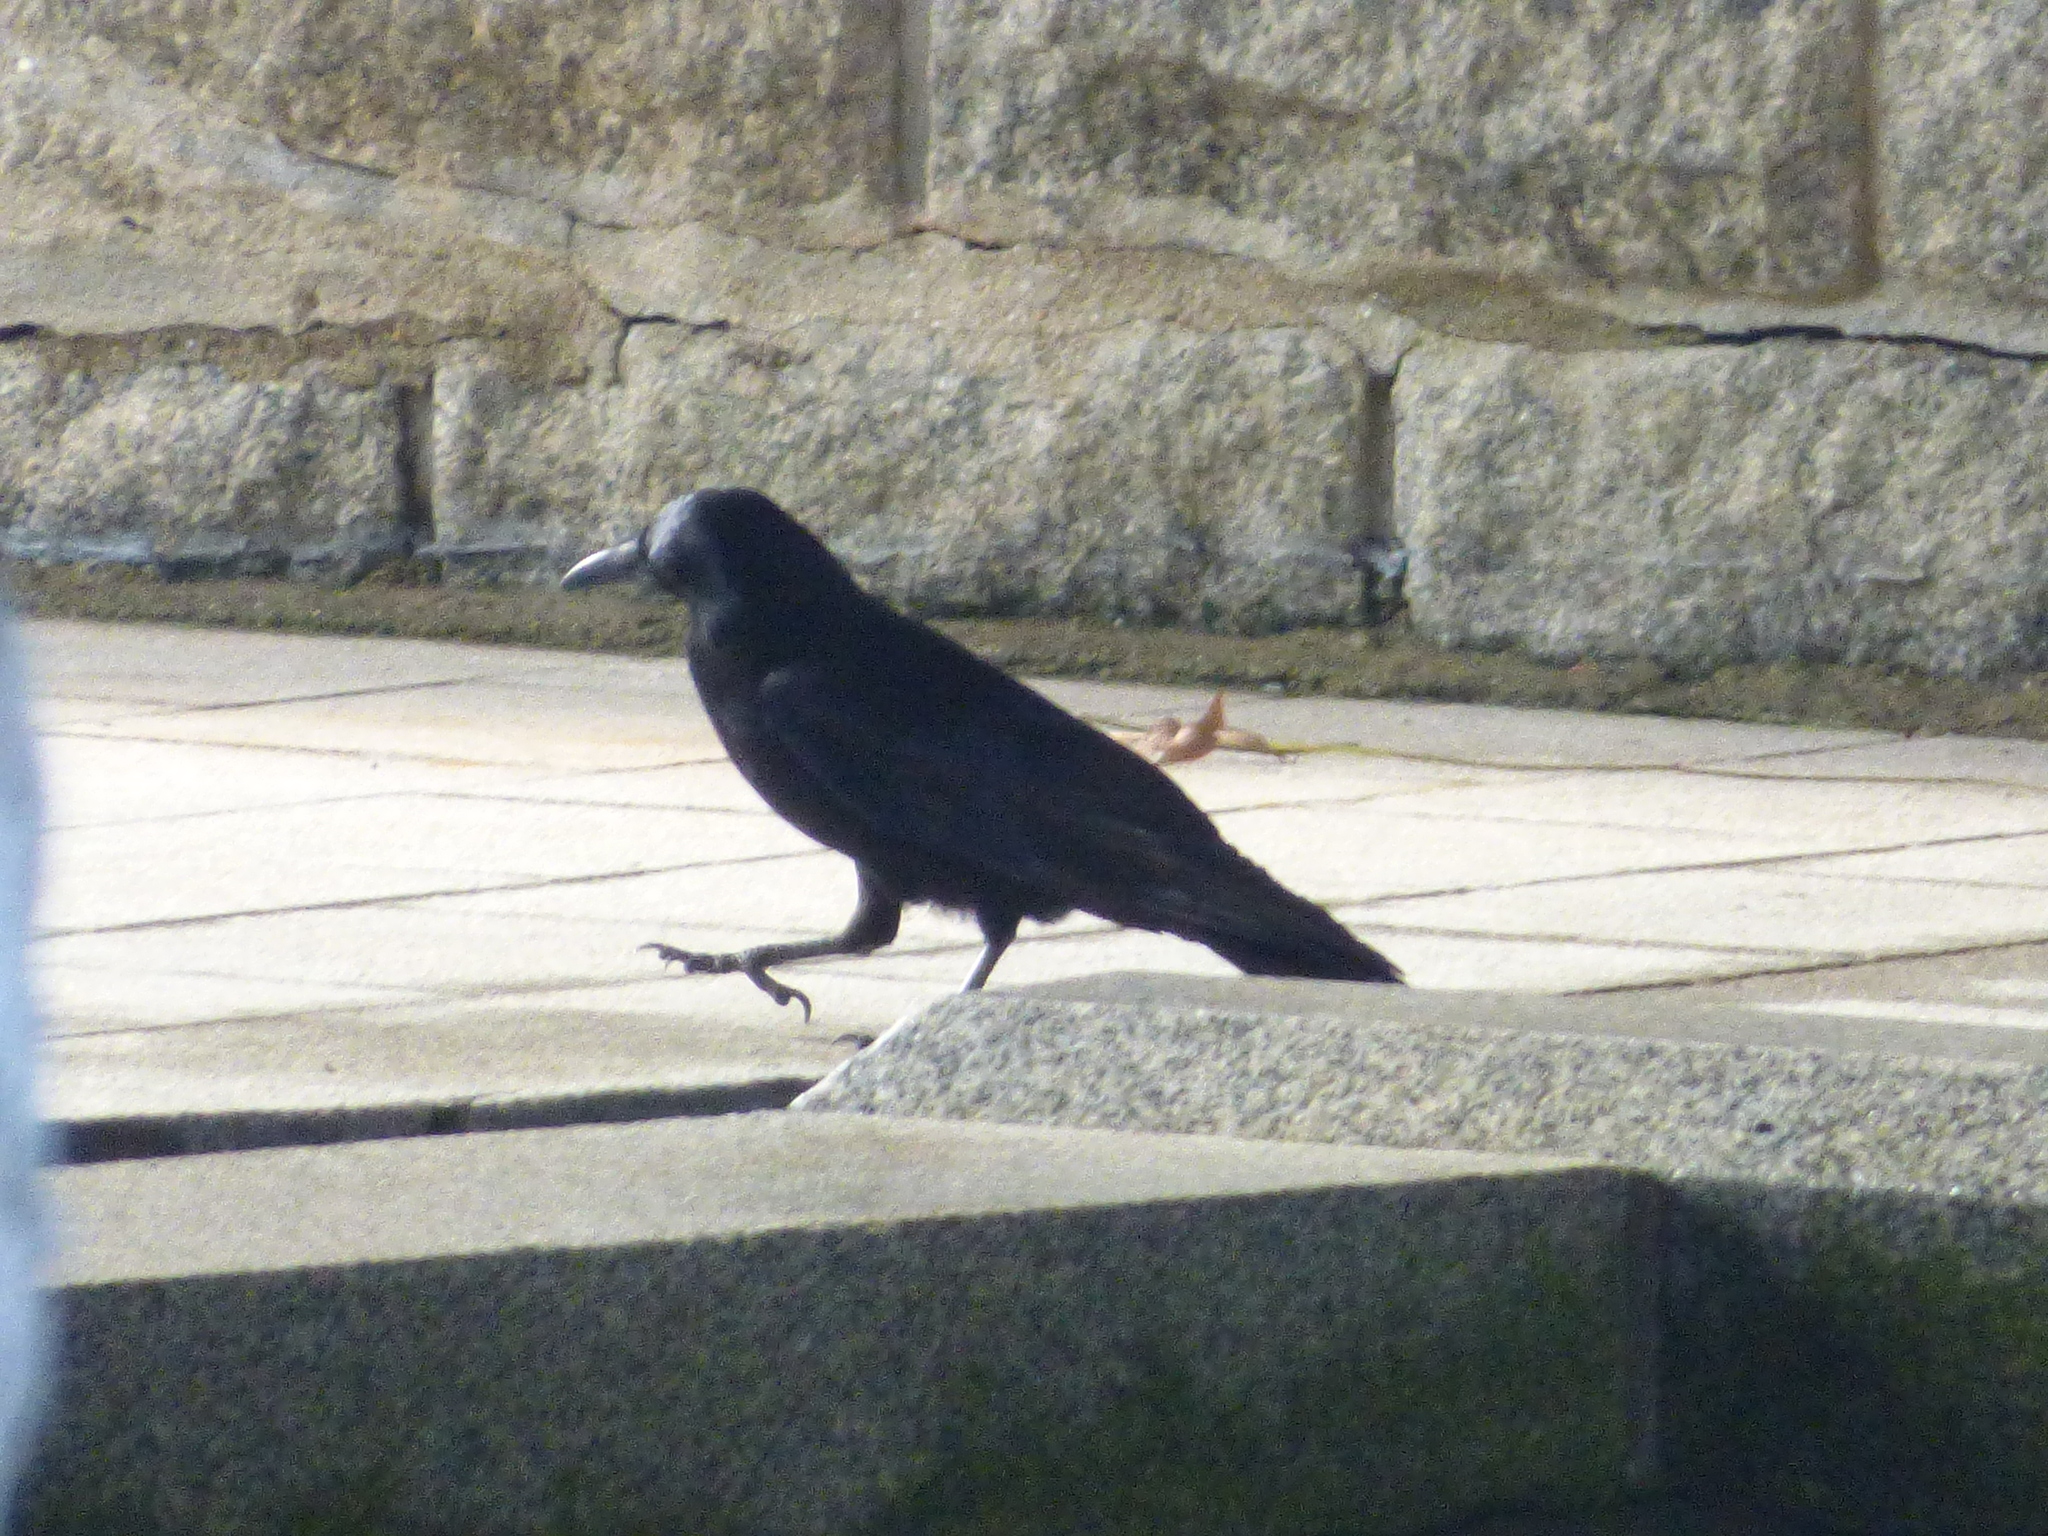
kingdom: Animalia
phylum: Chordata
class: Aves
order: Passeriformes
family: Corvidae
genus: Corvus
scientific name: Corvus macrorhynchos
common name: Large-billed crow
